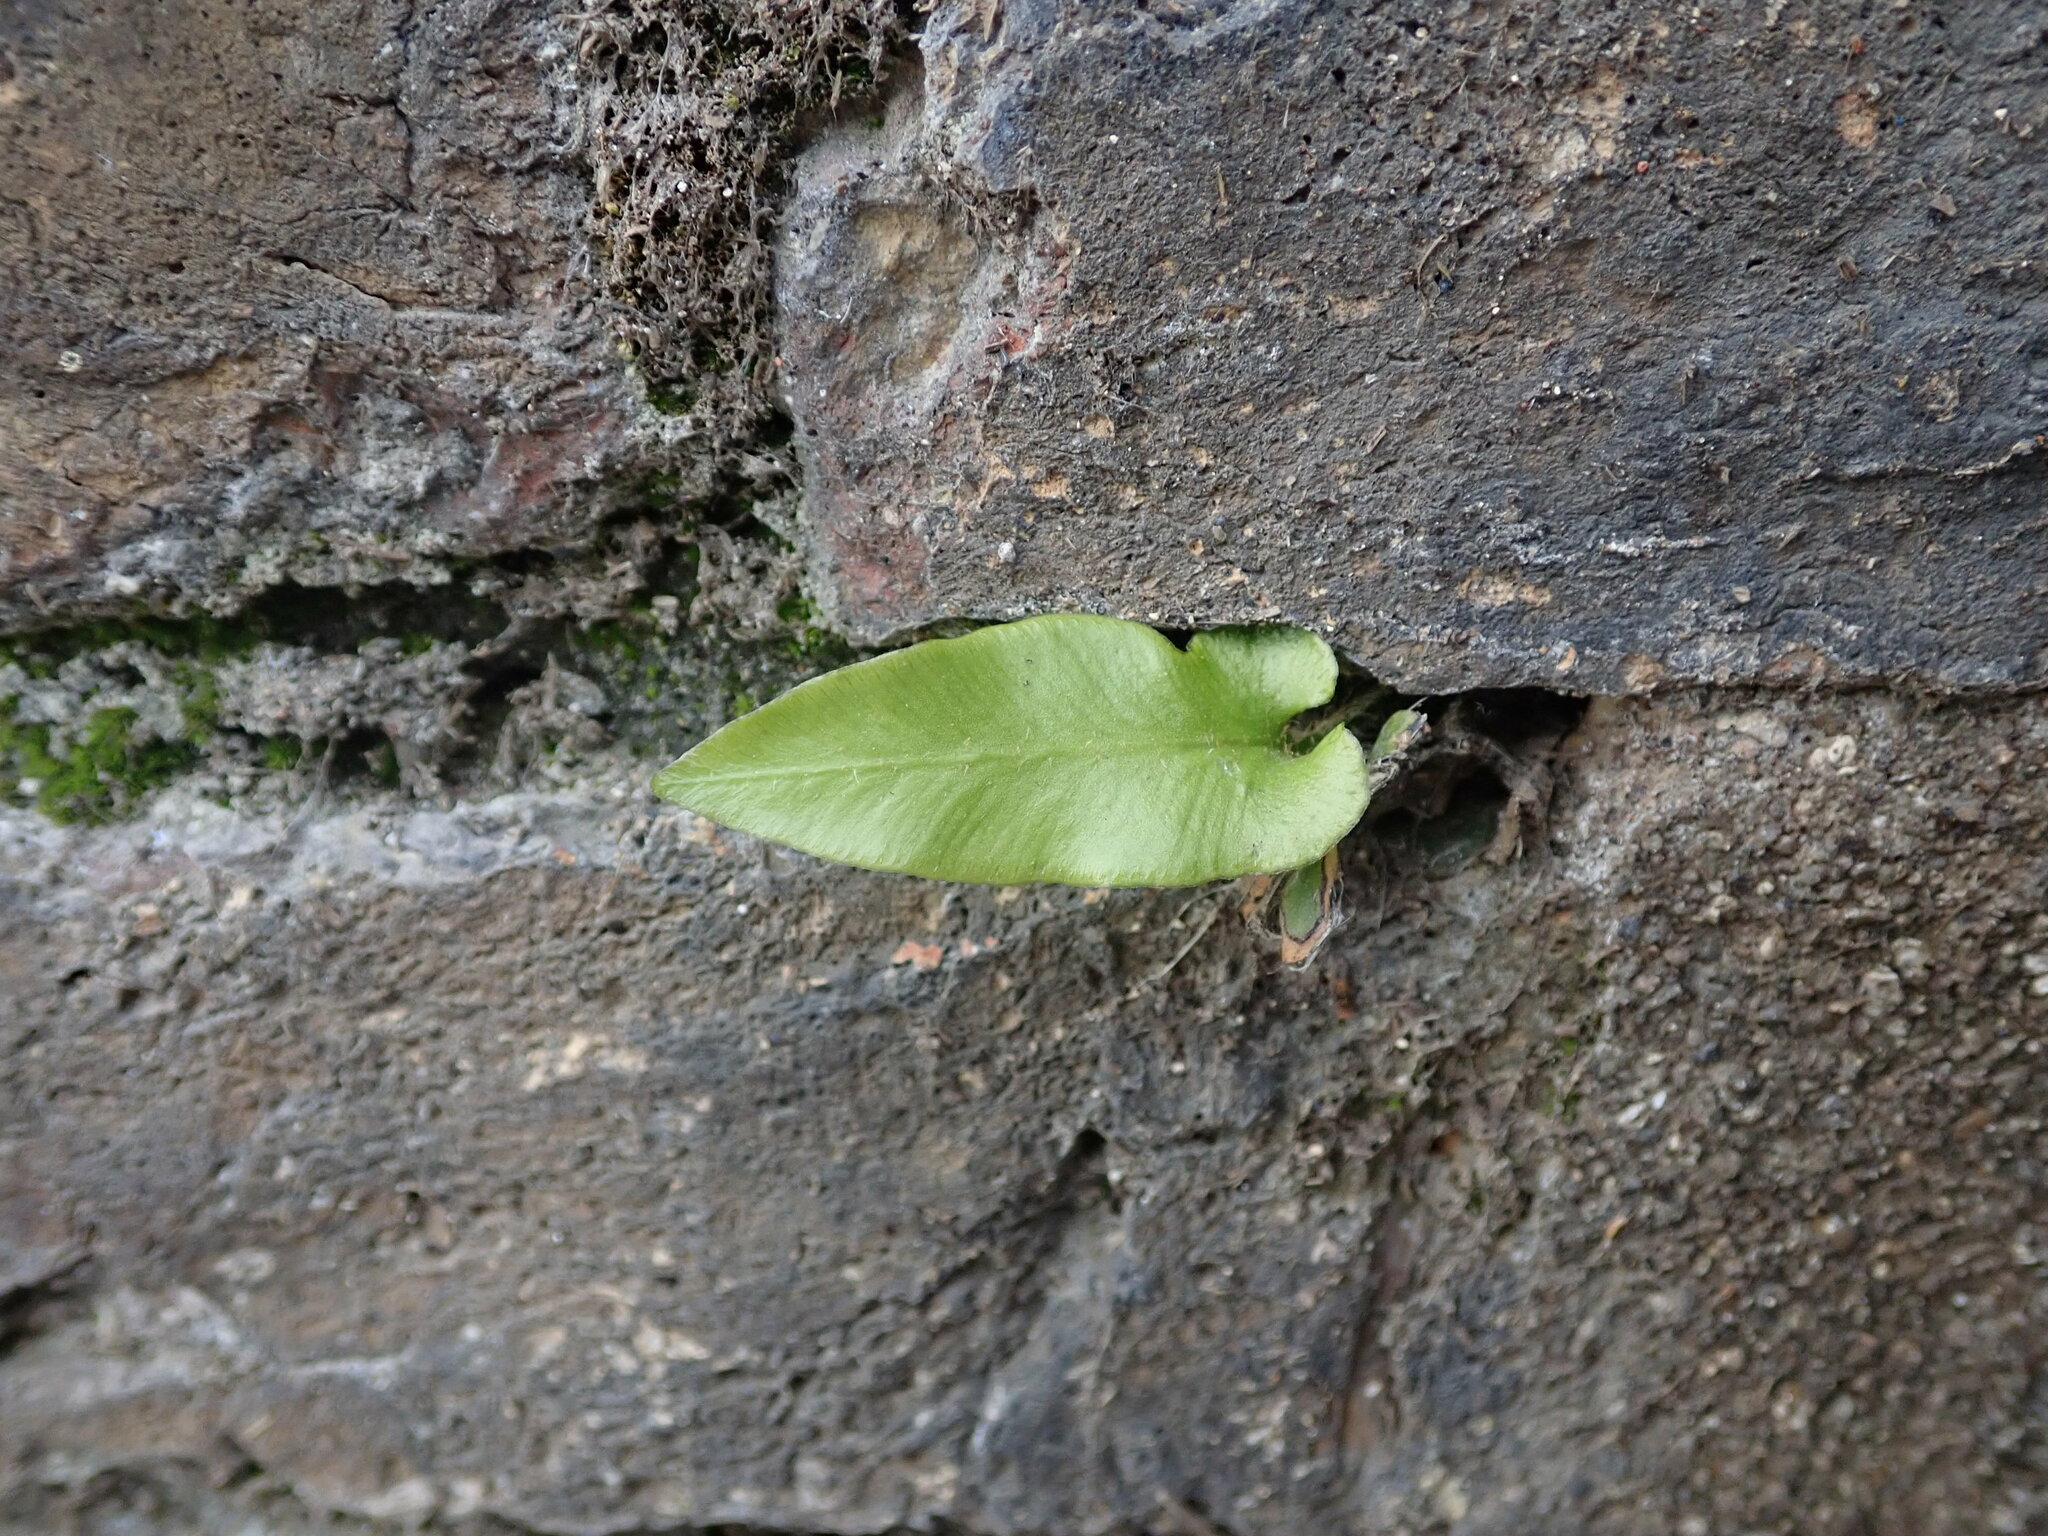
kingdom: Plantae
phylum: Tracheophyta
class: Polypodiopsida
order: Polypodiales
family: Aspleniaceae
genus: Asplenium
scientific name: Asplenium scolopendrium
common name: Hart's-tongue fern
